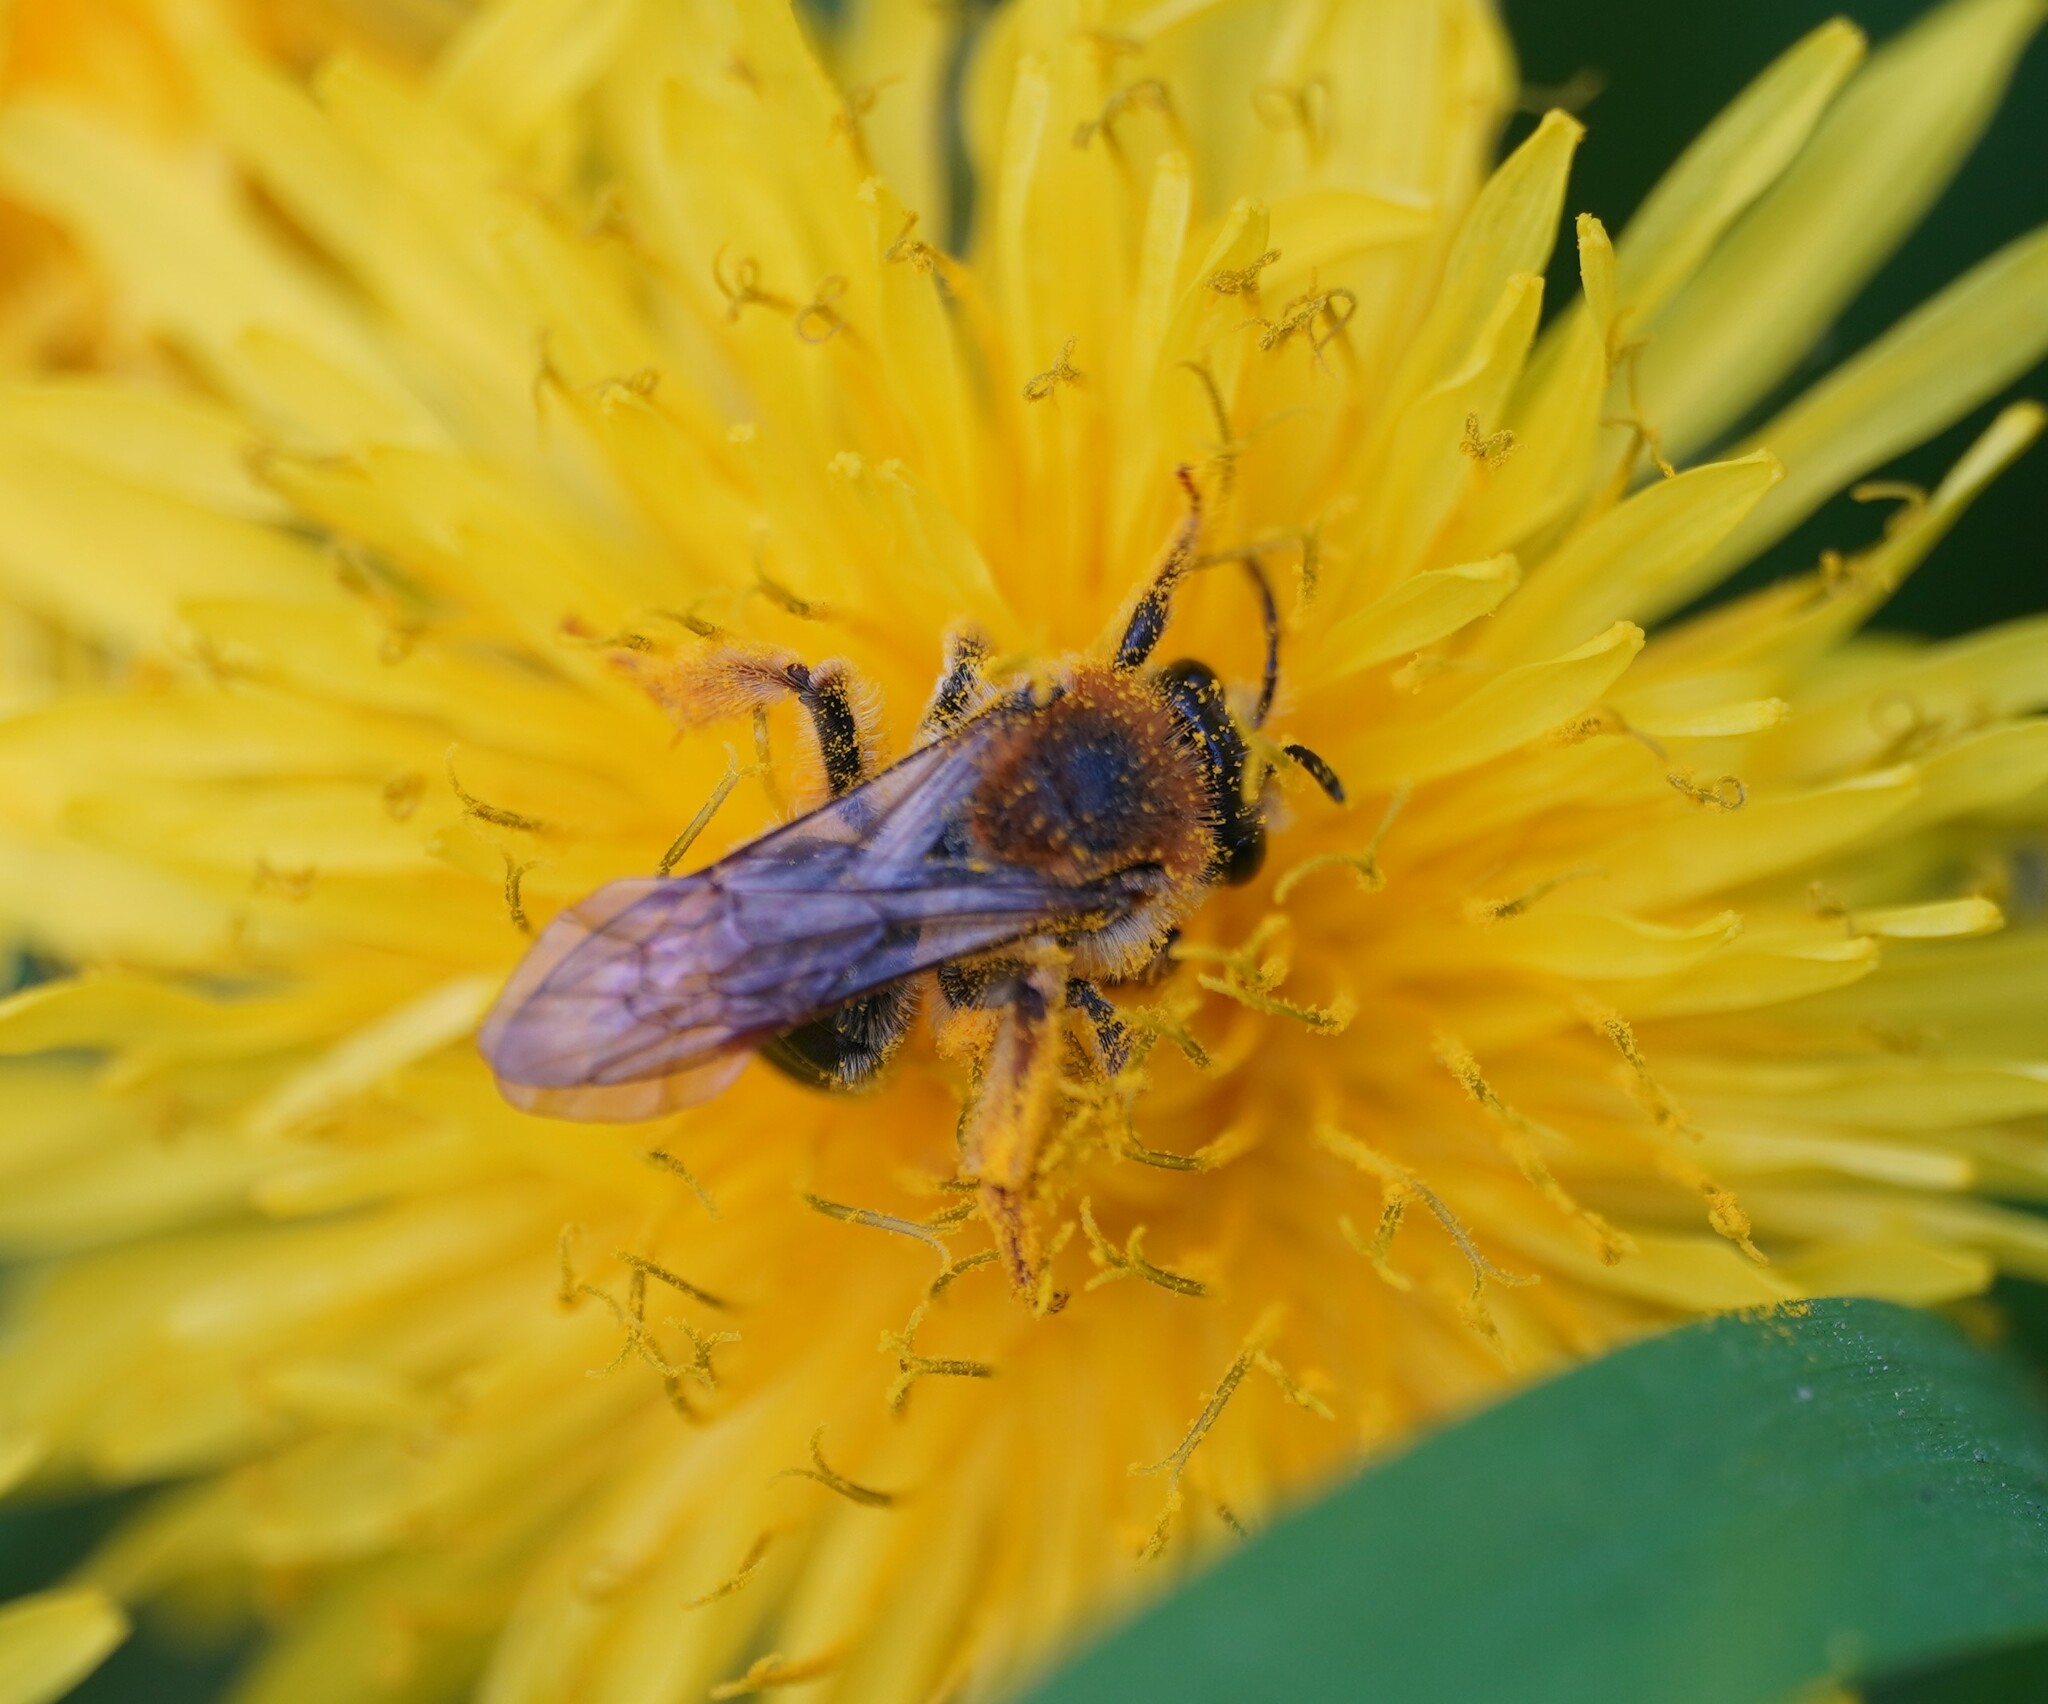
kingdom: Animalia
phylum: Arthropoda
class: Insecta
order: Hymenoptera
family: Andrenidae
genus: Andrena
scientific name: Andrena haemorrhoa
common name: Early mining bee
